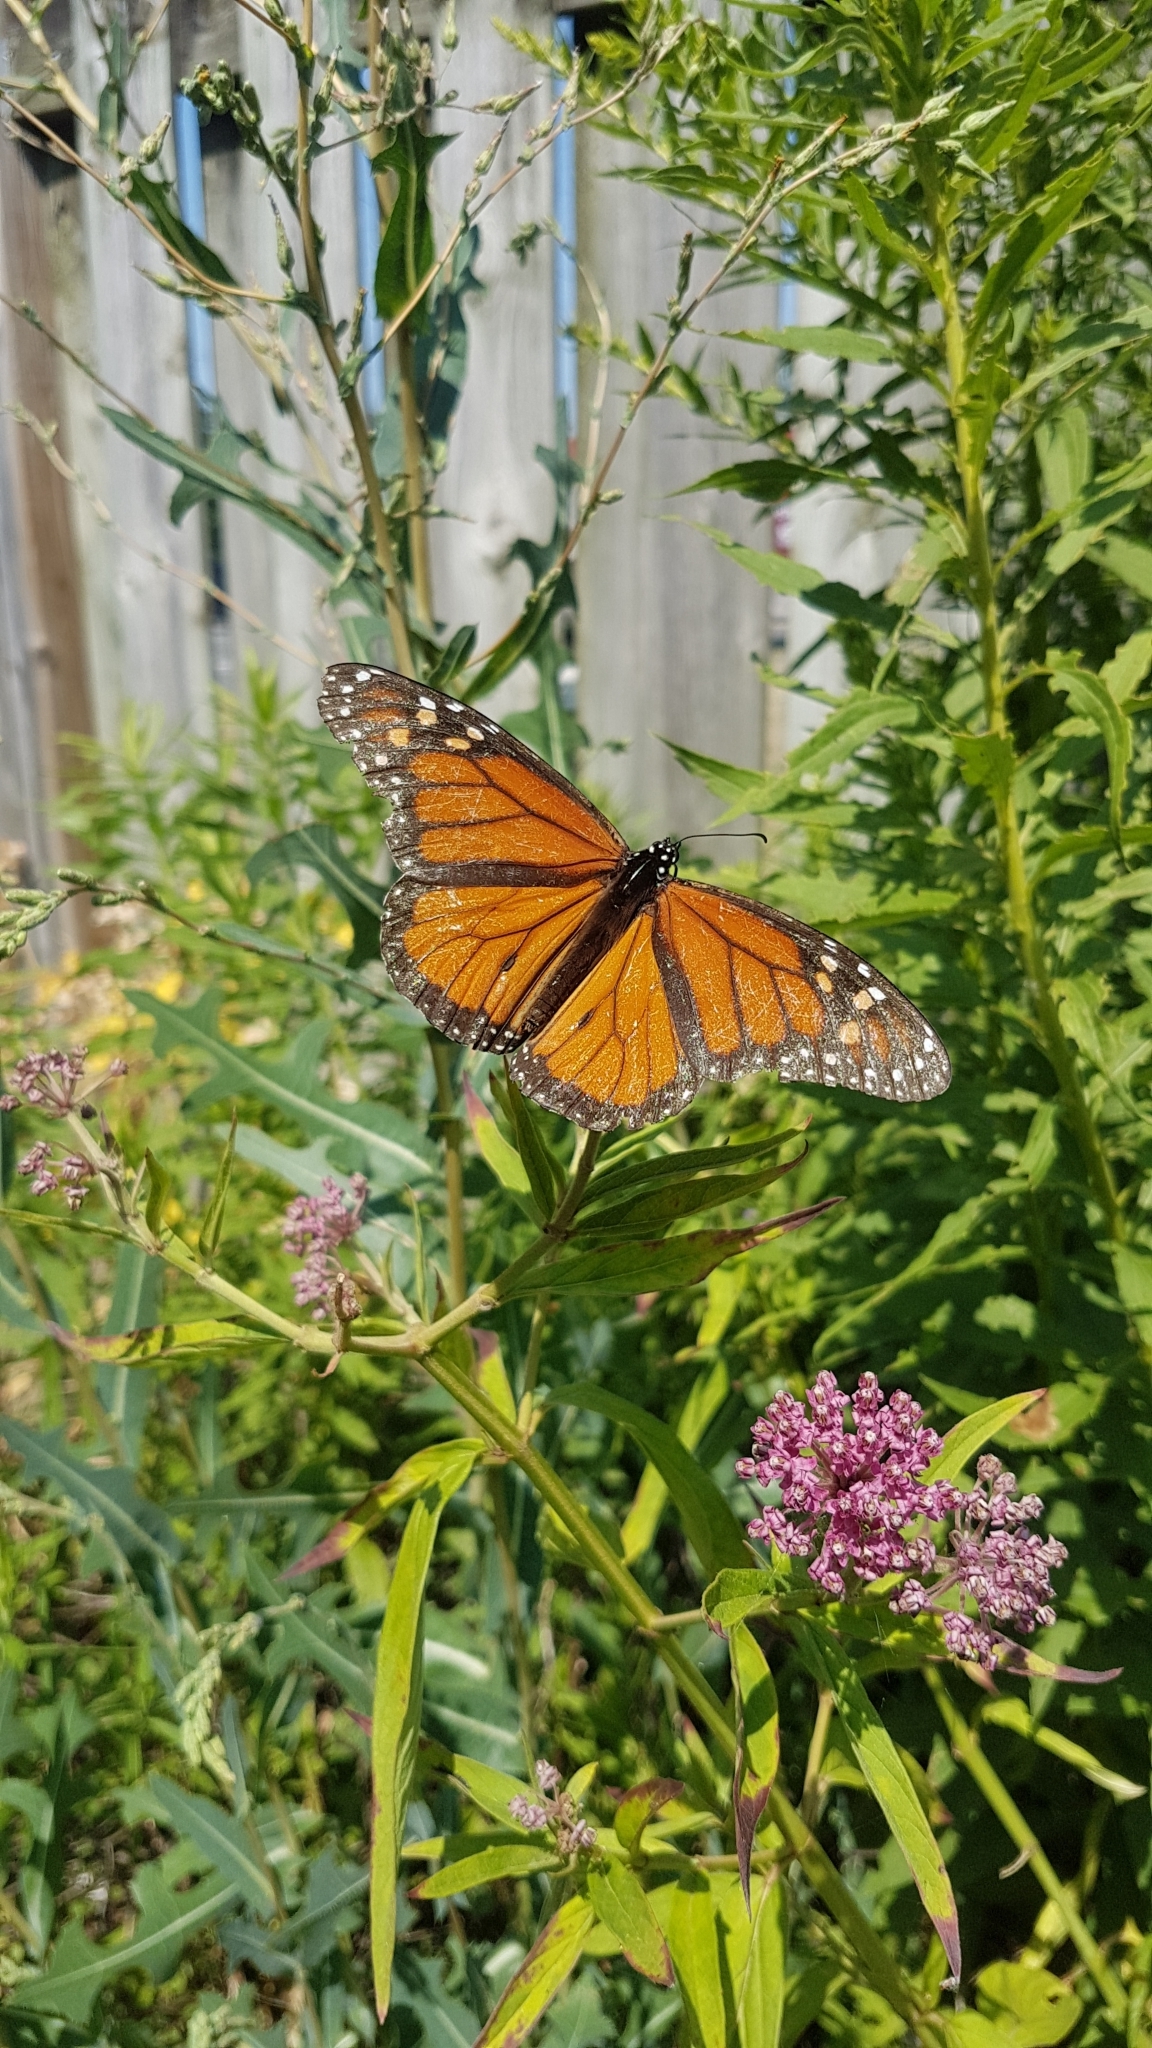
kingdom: Animalia
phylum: Arthropoda
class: Insecta
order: Lepidoptera
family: Nymphalidae
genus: Danaus
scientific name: Danaus plexippus
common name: Monarch
